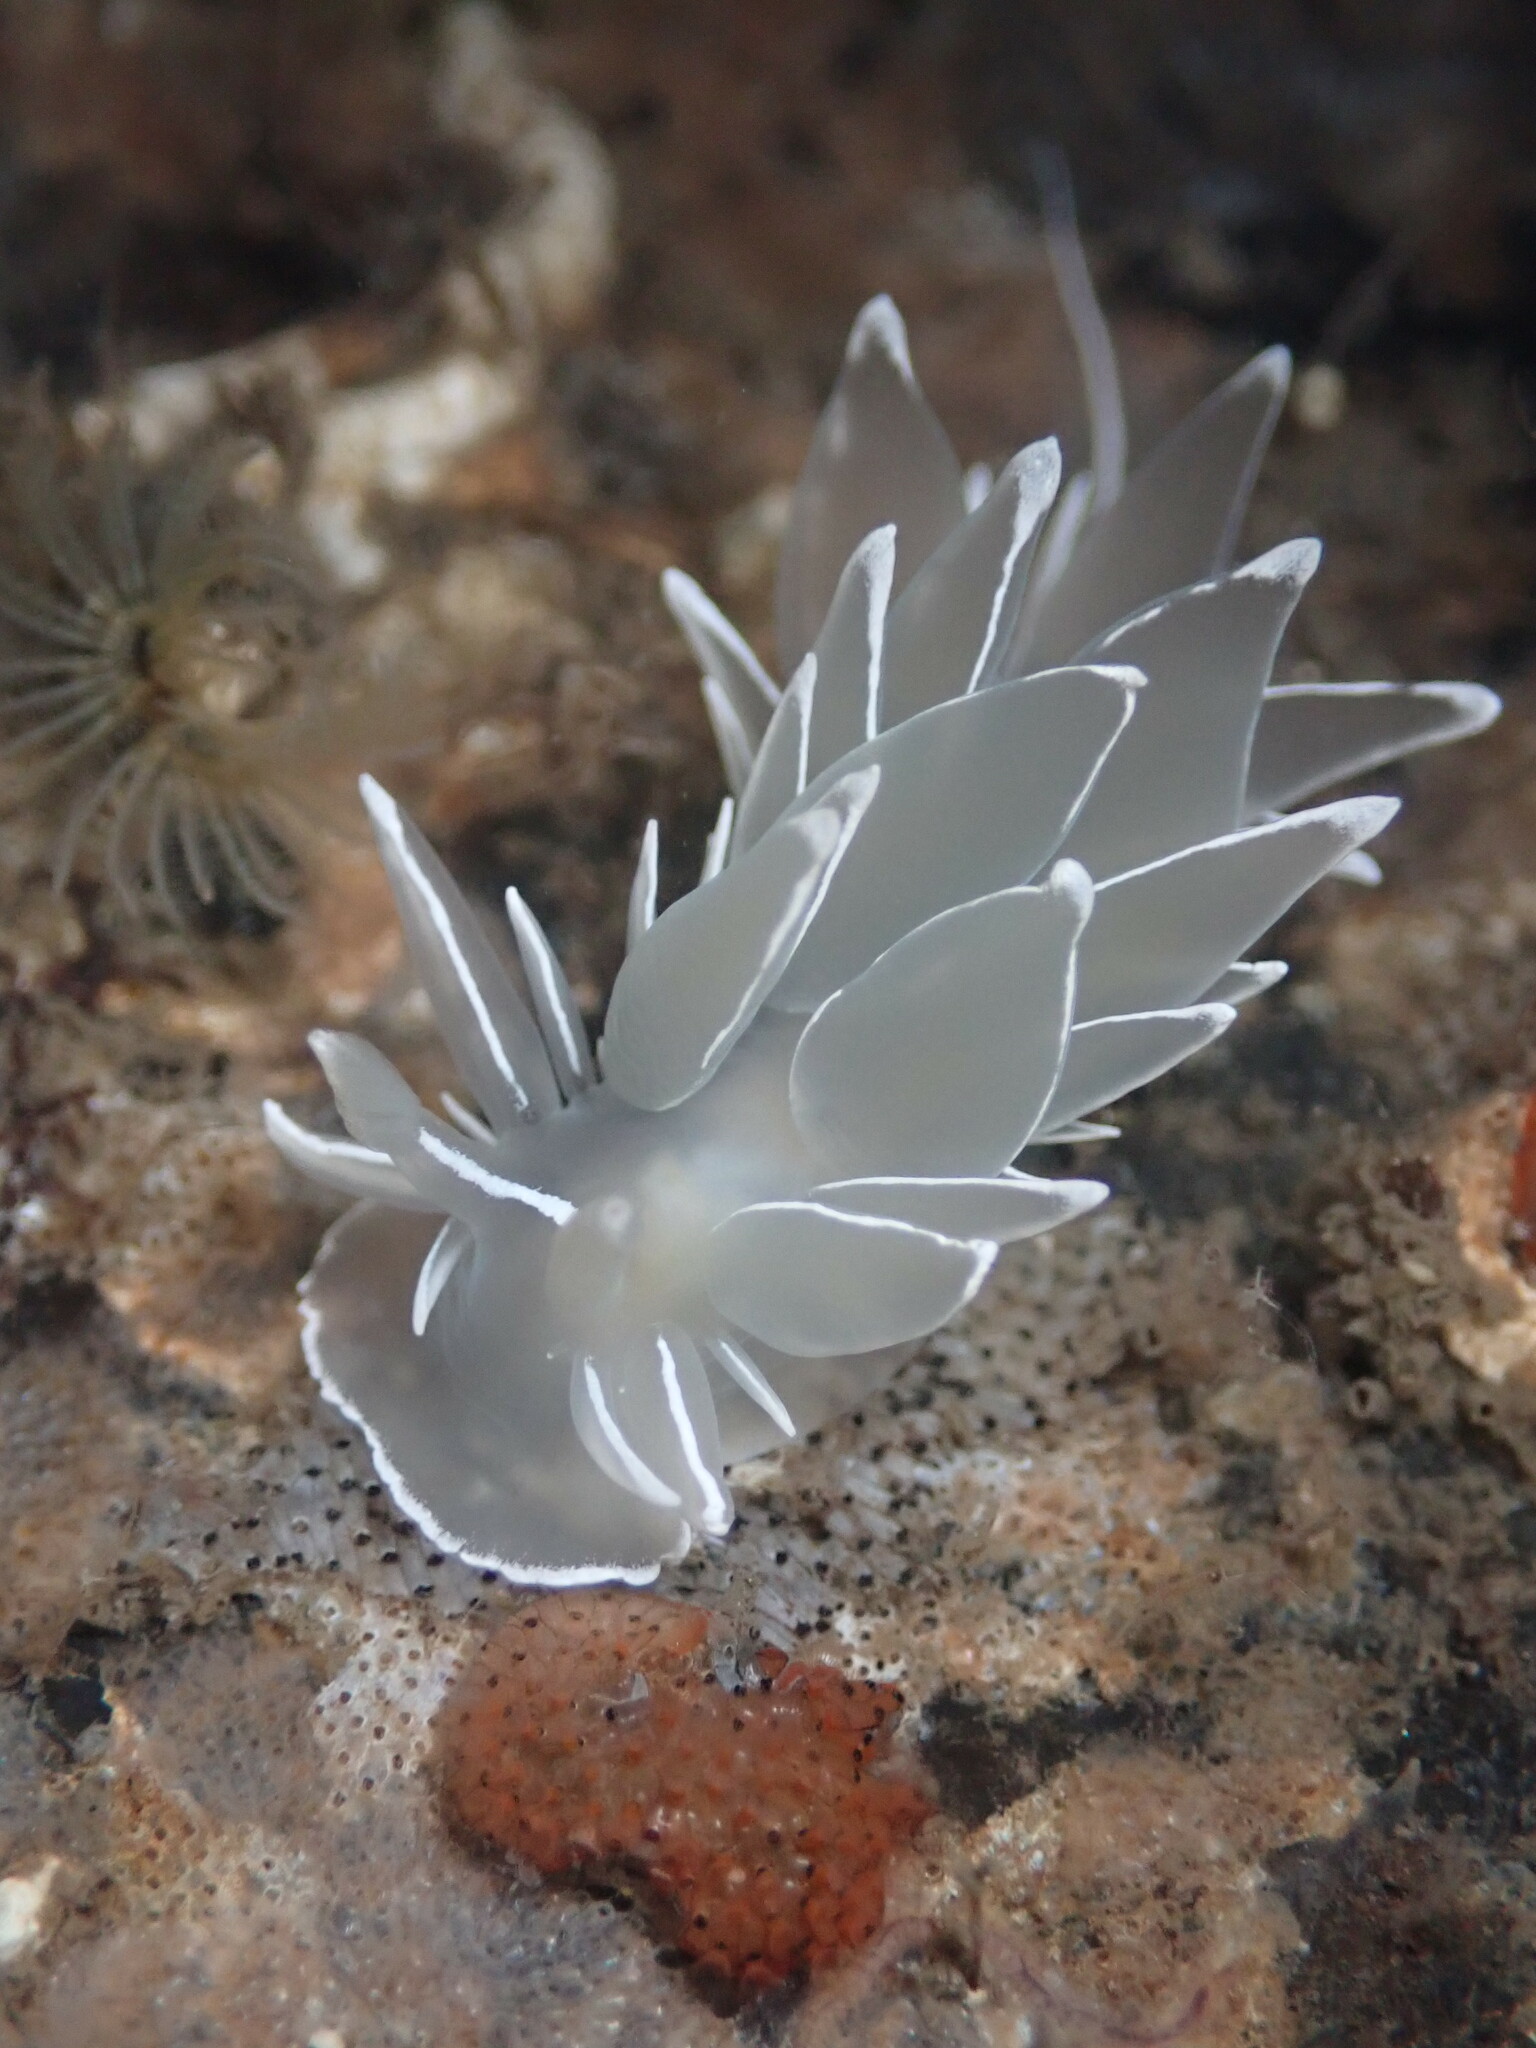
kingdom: Animalia
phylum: Mollusca
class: Gastropoda
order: Nudibranchia
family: Dironidae
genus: Dirona
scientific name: Dirona albolineata
